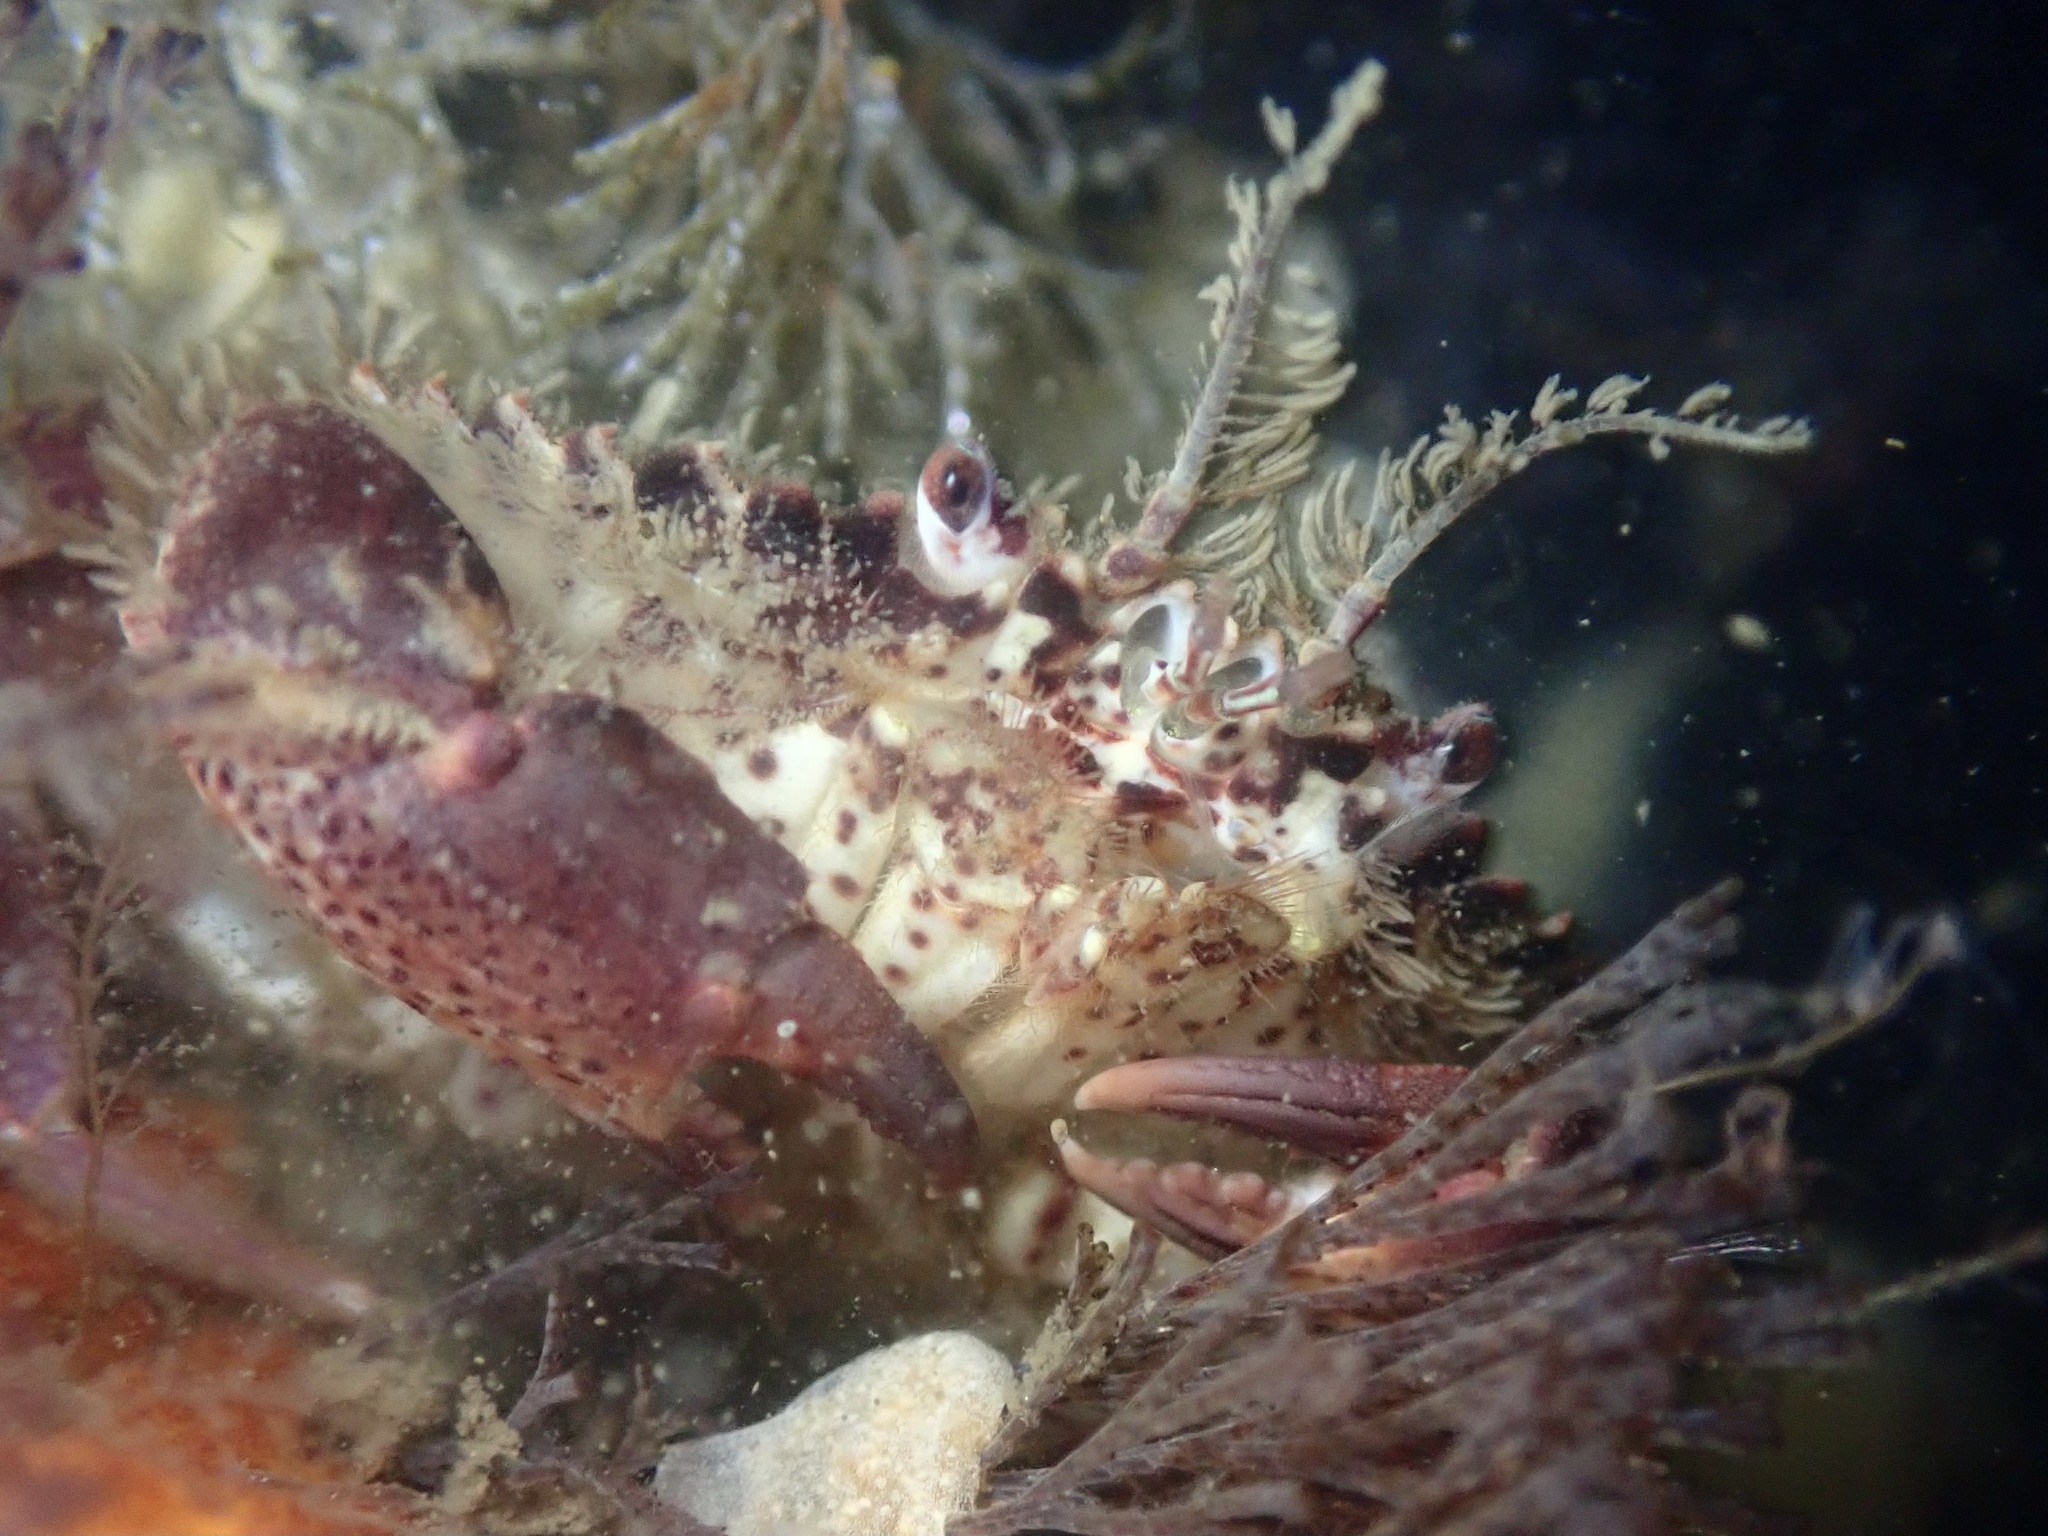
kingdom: Animalia
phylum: Arthropoda
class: Malacostraca
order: Decapoda
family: Cancridae
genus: Romaleon
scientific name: Romaleon antennarium
